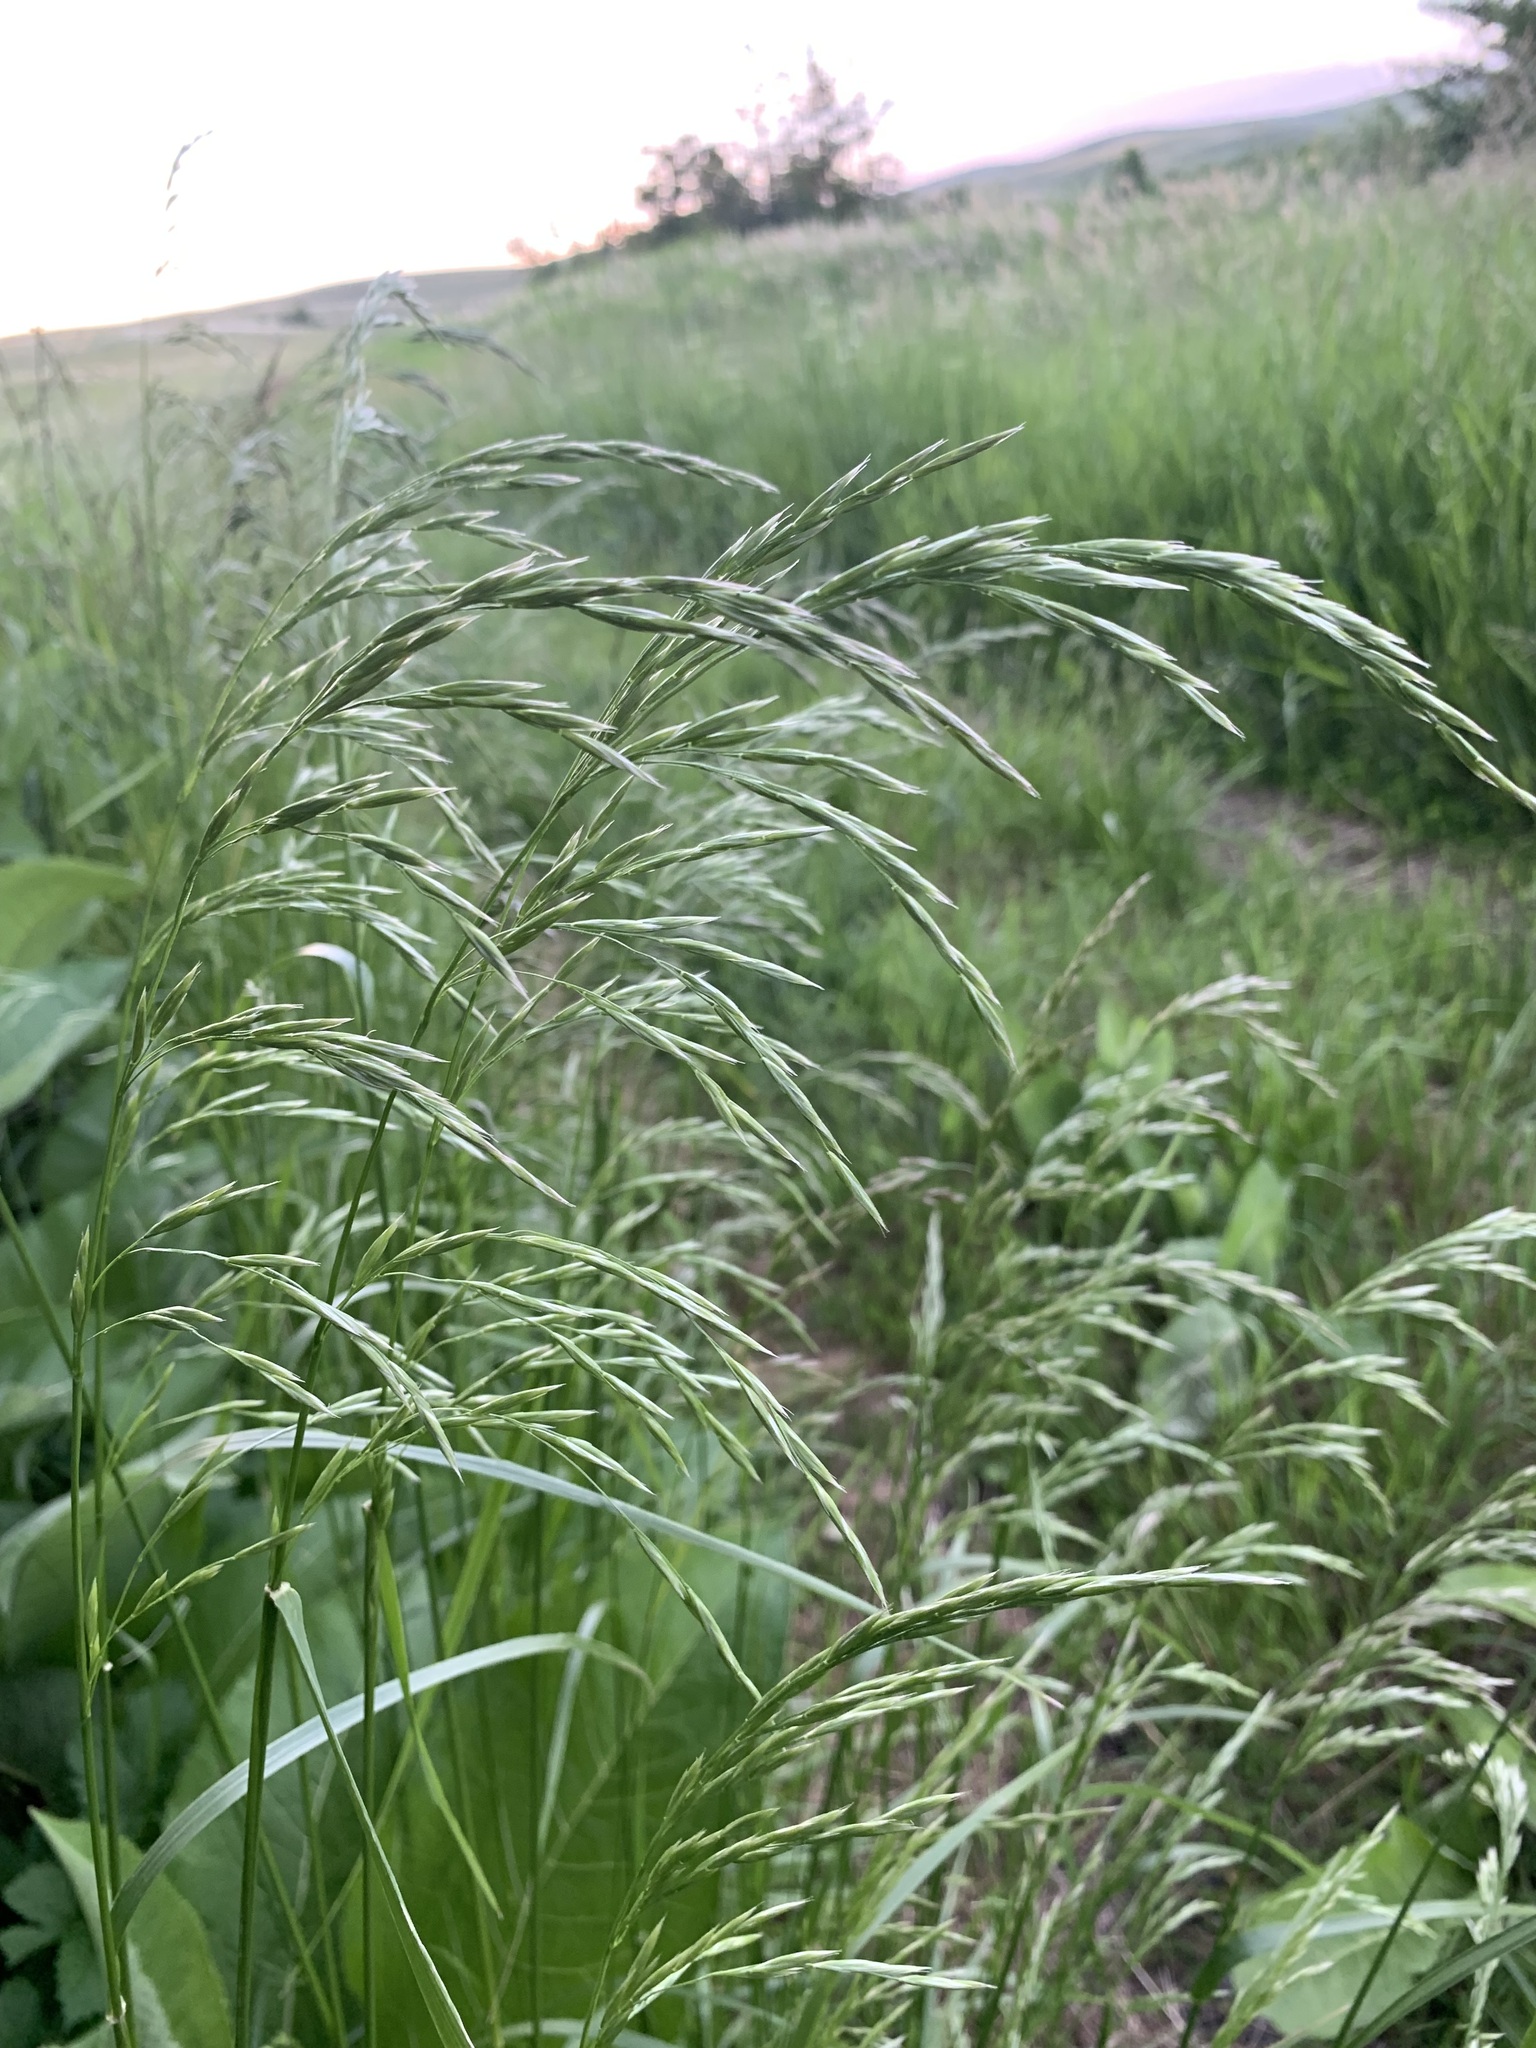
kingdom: Plantae
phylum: Tracheophyta
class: Liliopsida
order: Poales
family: Poaceae
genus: Bromus
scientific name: Bromus inermis
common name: Smooth brome
